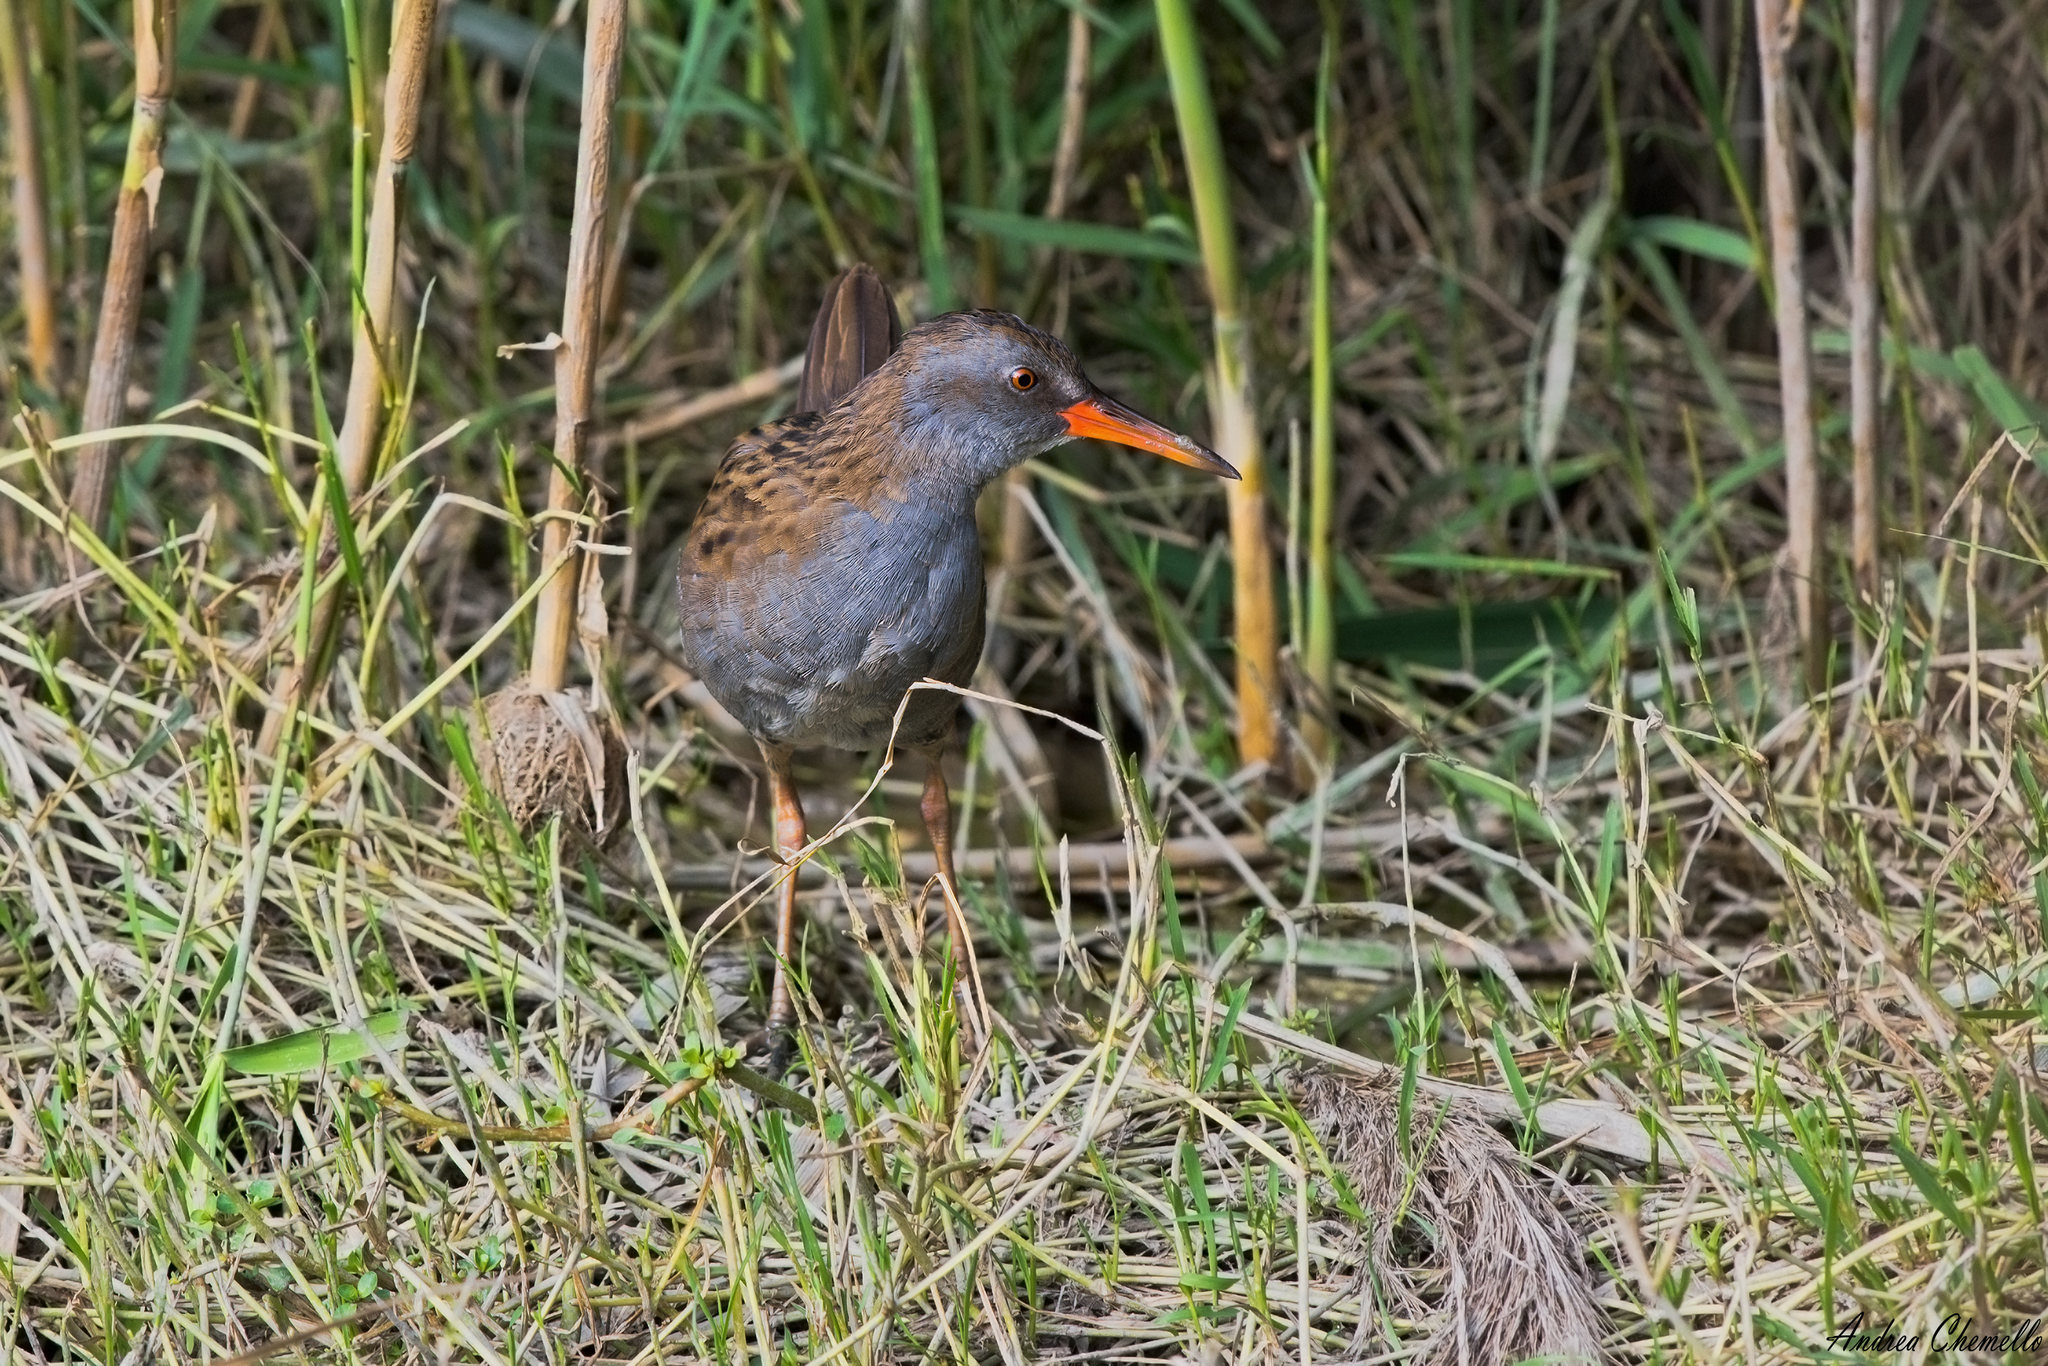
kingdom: Animalia
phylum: Chordata
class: Aves
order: Gruiformes
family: Rallidae
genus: Rallus
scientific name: Rallus aquaticus
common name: Water rail
